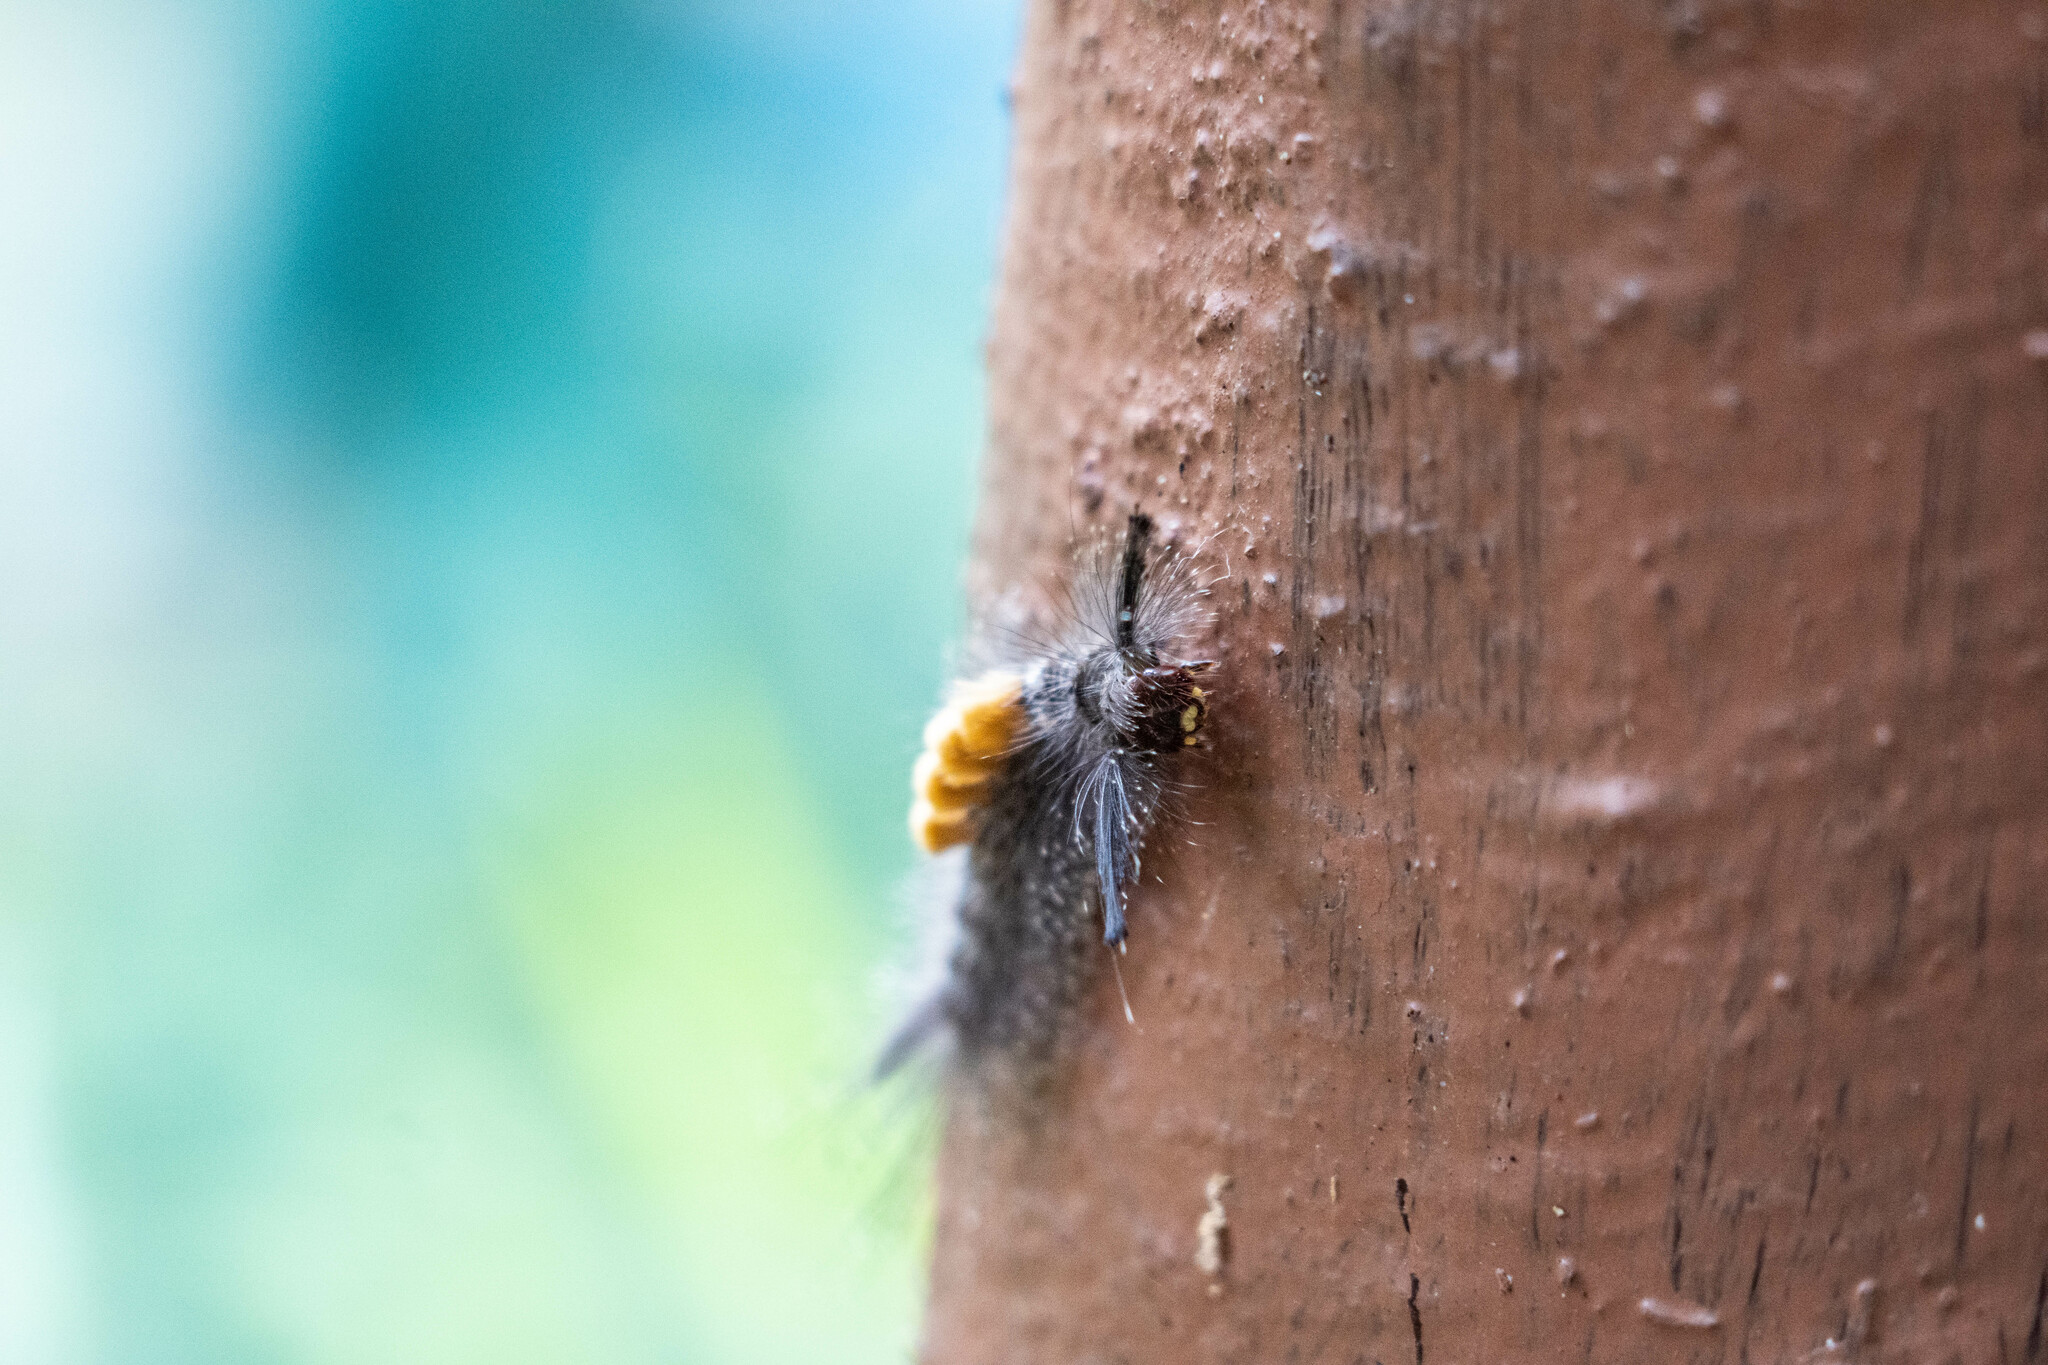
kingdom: Animalia
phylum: Arthropoda
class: Insecta
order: Lepidoptera
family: Erebidae
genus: Dasychira
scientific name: Dasychira chekiangensis
